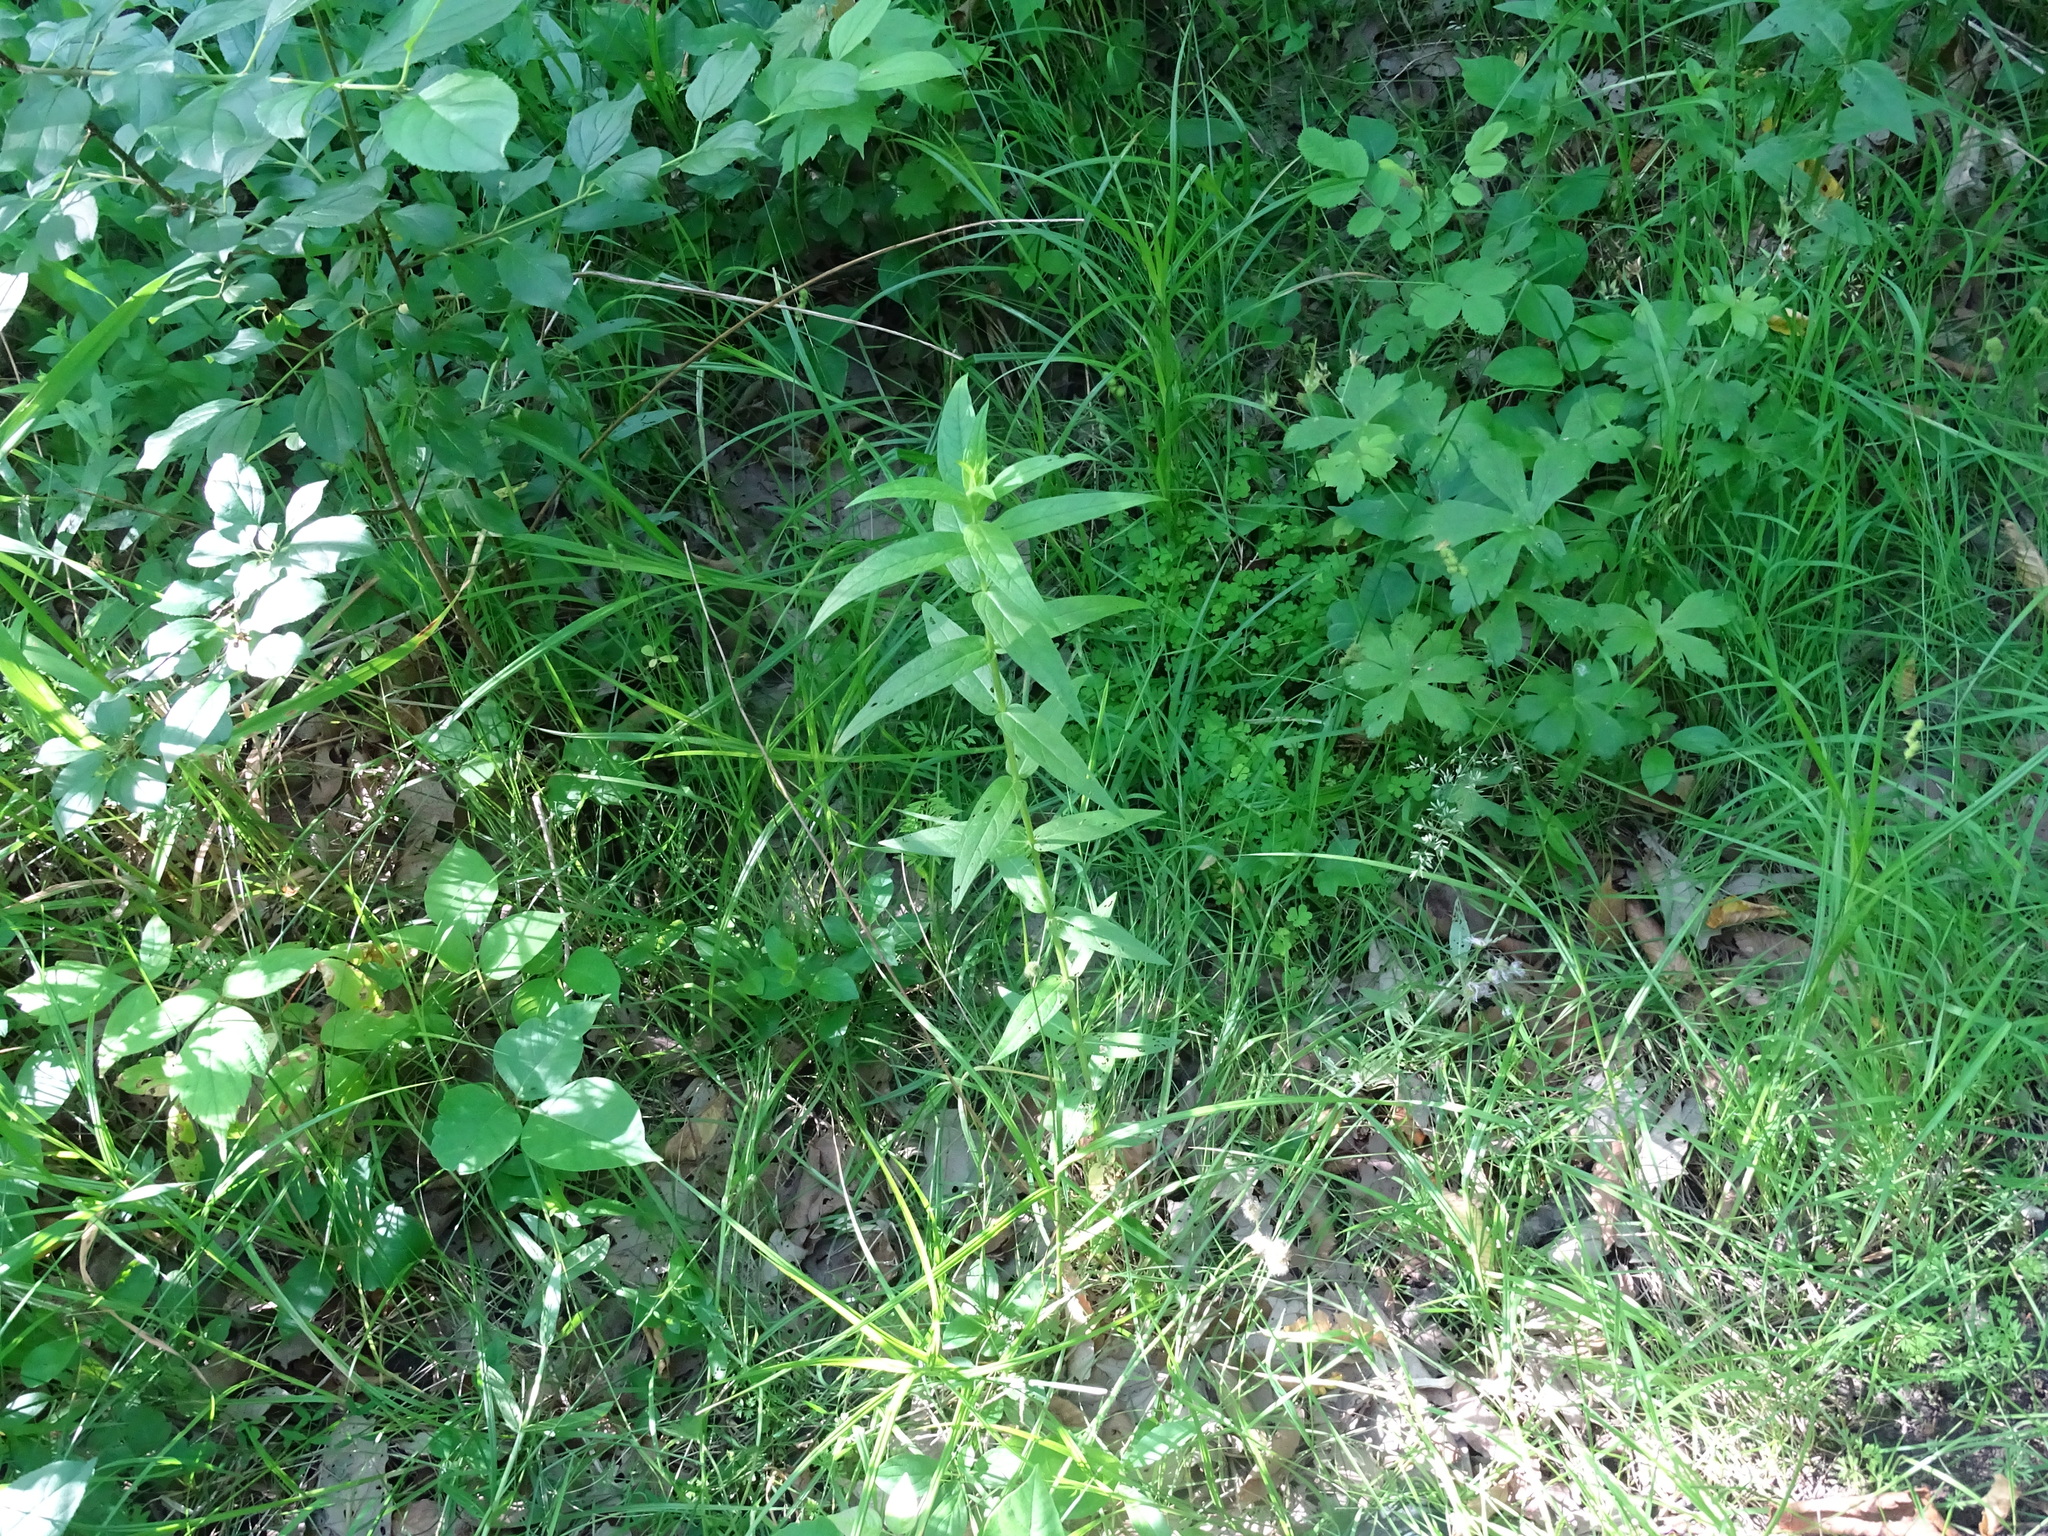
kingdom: Plantae
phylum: Tracheophyta
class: Magnoliopsida
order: Myrtales
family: Lythraceae
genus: Lythrum
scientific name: Lythrum salicaria
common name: Purple loosestrife
